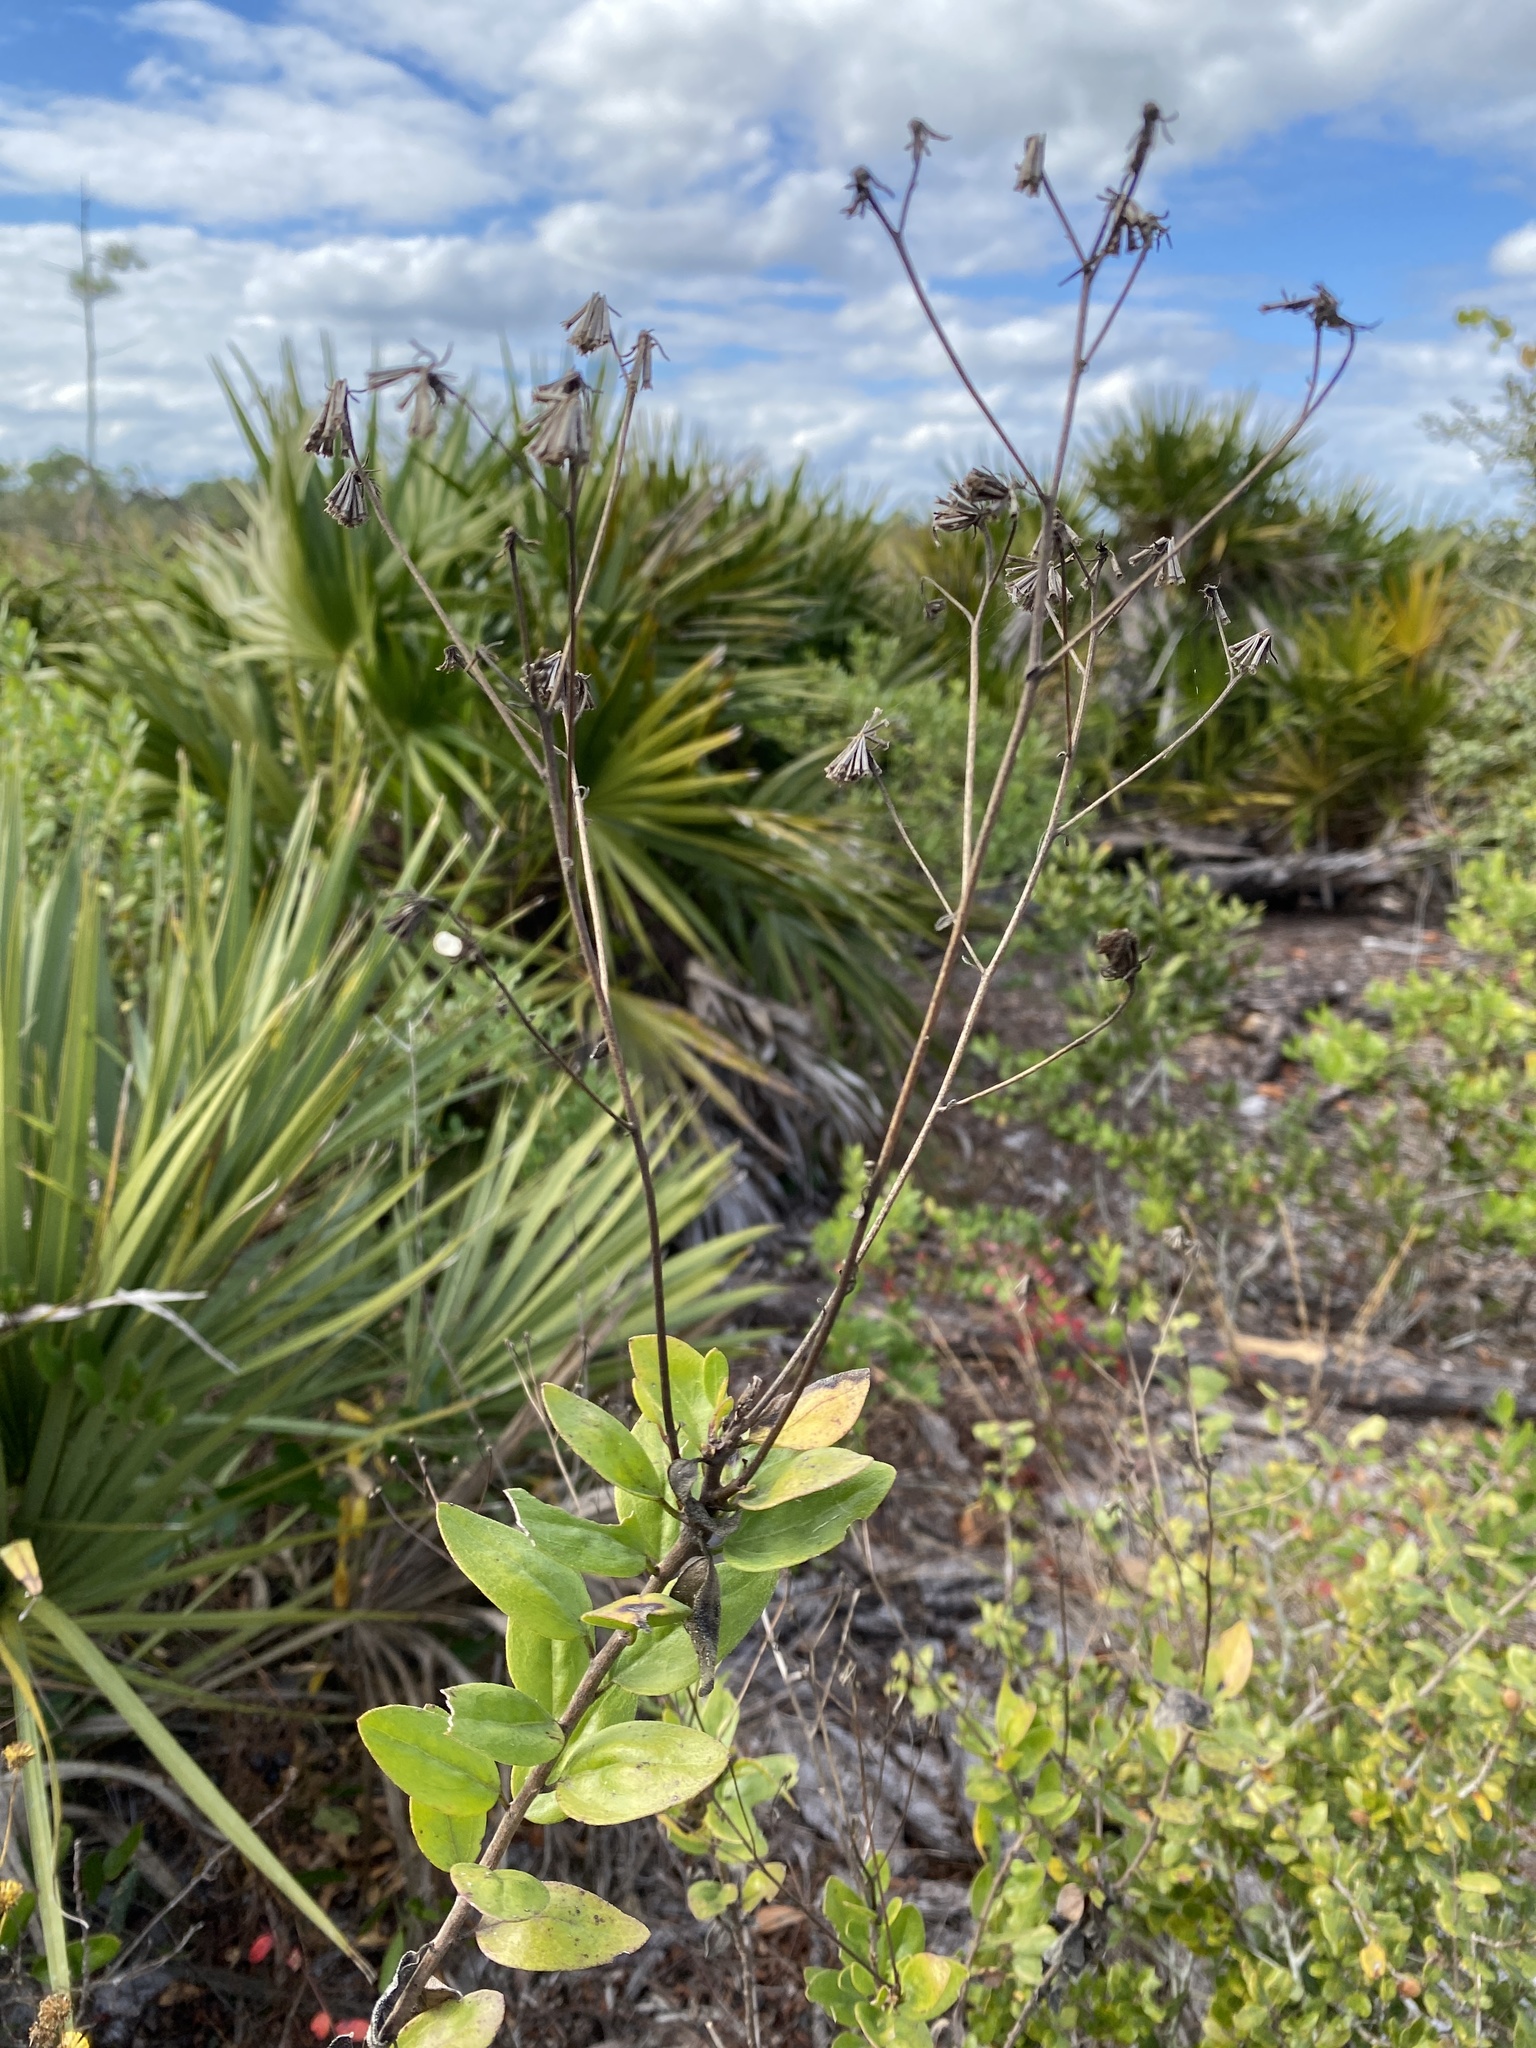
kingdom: Plantae
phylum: Tracheophyta
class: Magnoliopsida
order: Asterales
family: Asteraceae
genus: Palafoxia
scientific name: Palafoxia feayi
